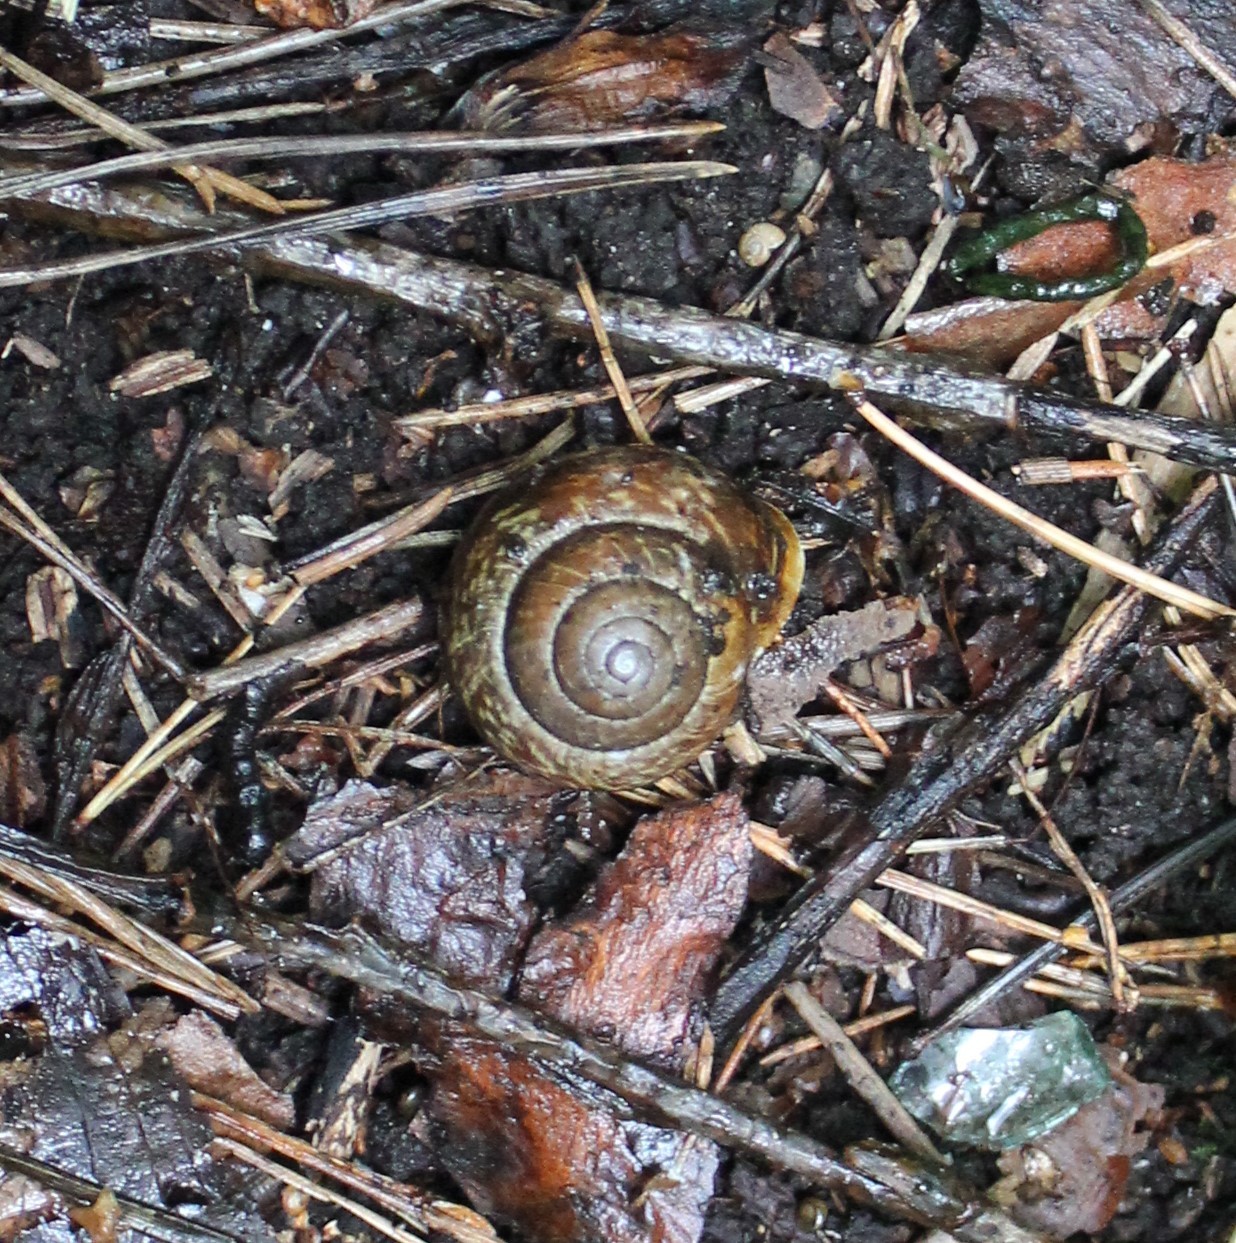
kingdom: Animalia
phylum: Mollusca
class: Gastropoda
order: Stylommatophora
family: Helicidae
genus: Arianta
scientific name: Arianta arbustorum
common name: Copse snail
